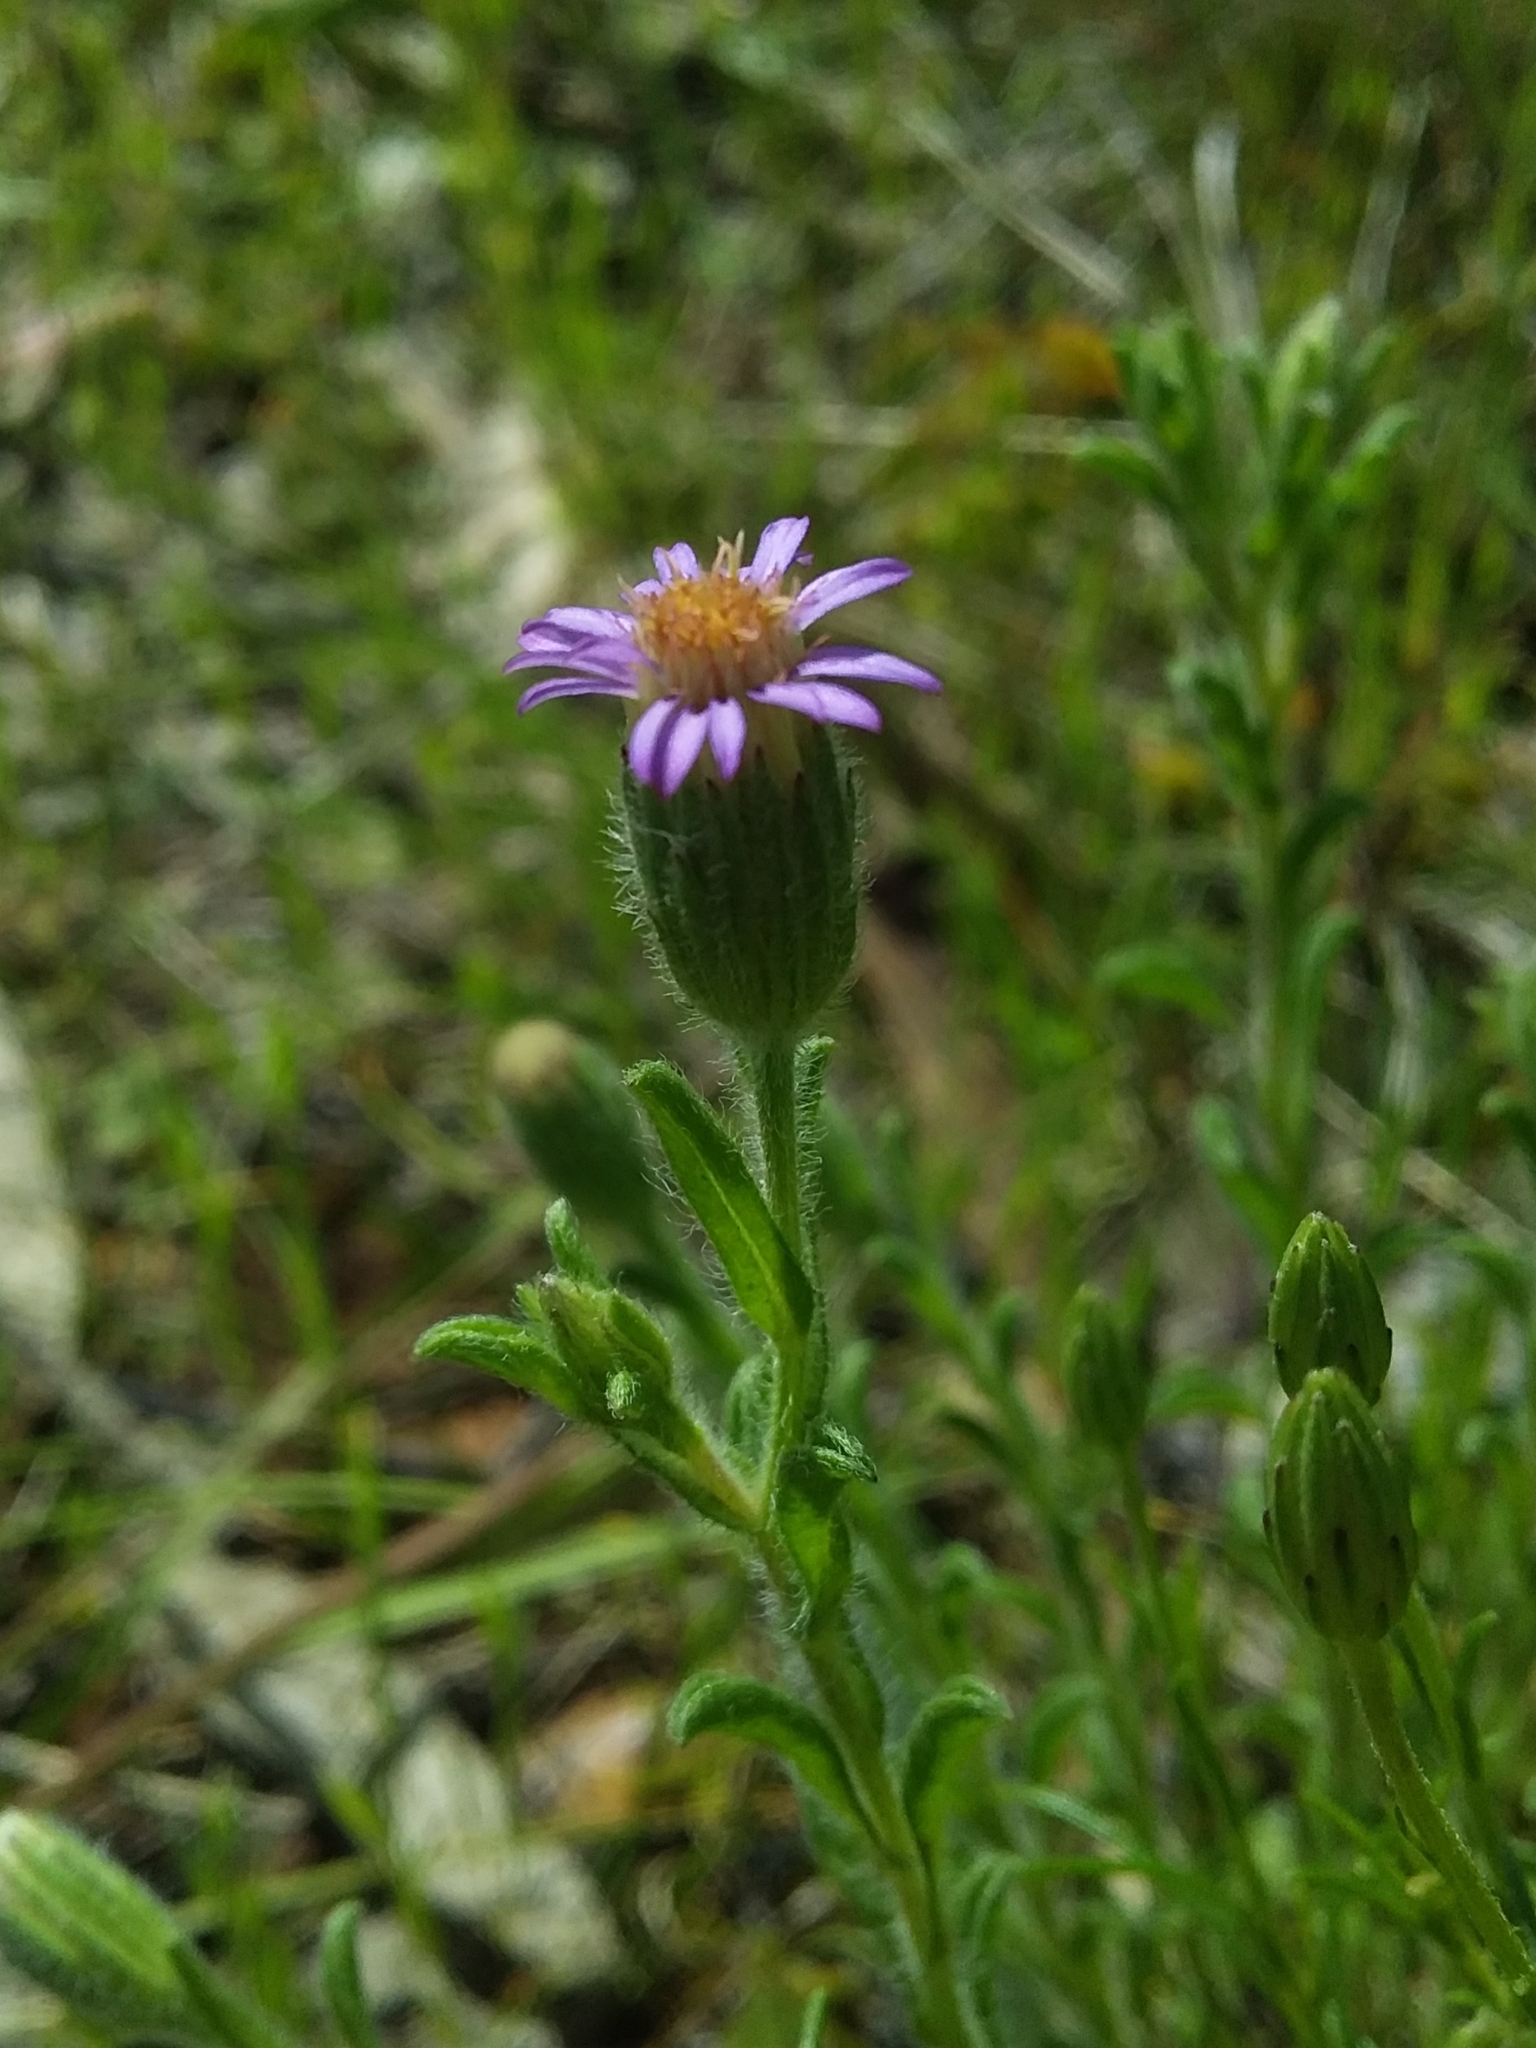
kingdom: Plantae
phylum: Tracheophyta
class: Magnoliopsida
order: Asterales
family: Asteraceae
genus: Vittadinia
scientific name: Vittadinia cuneata
